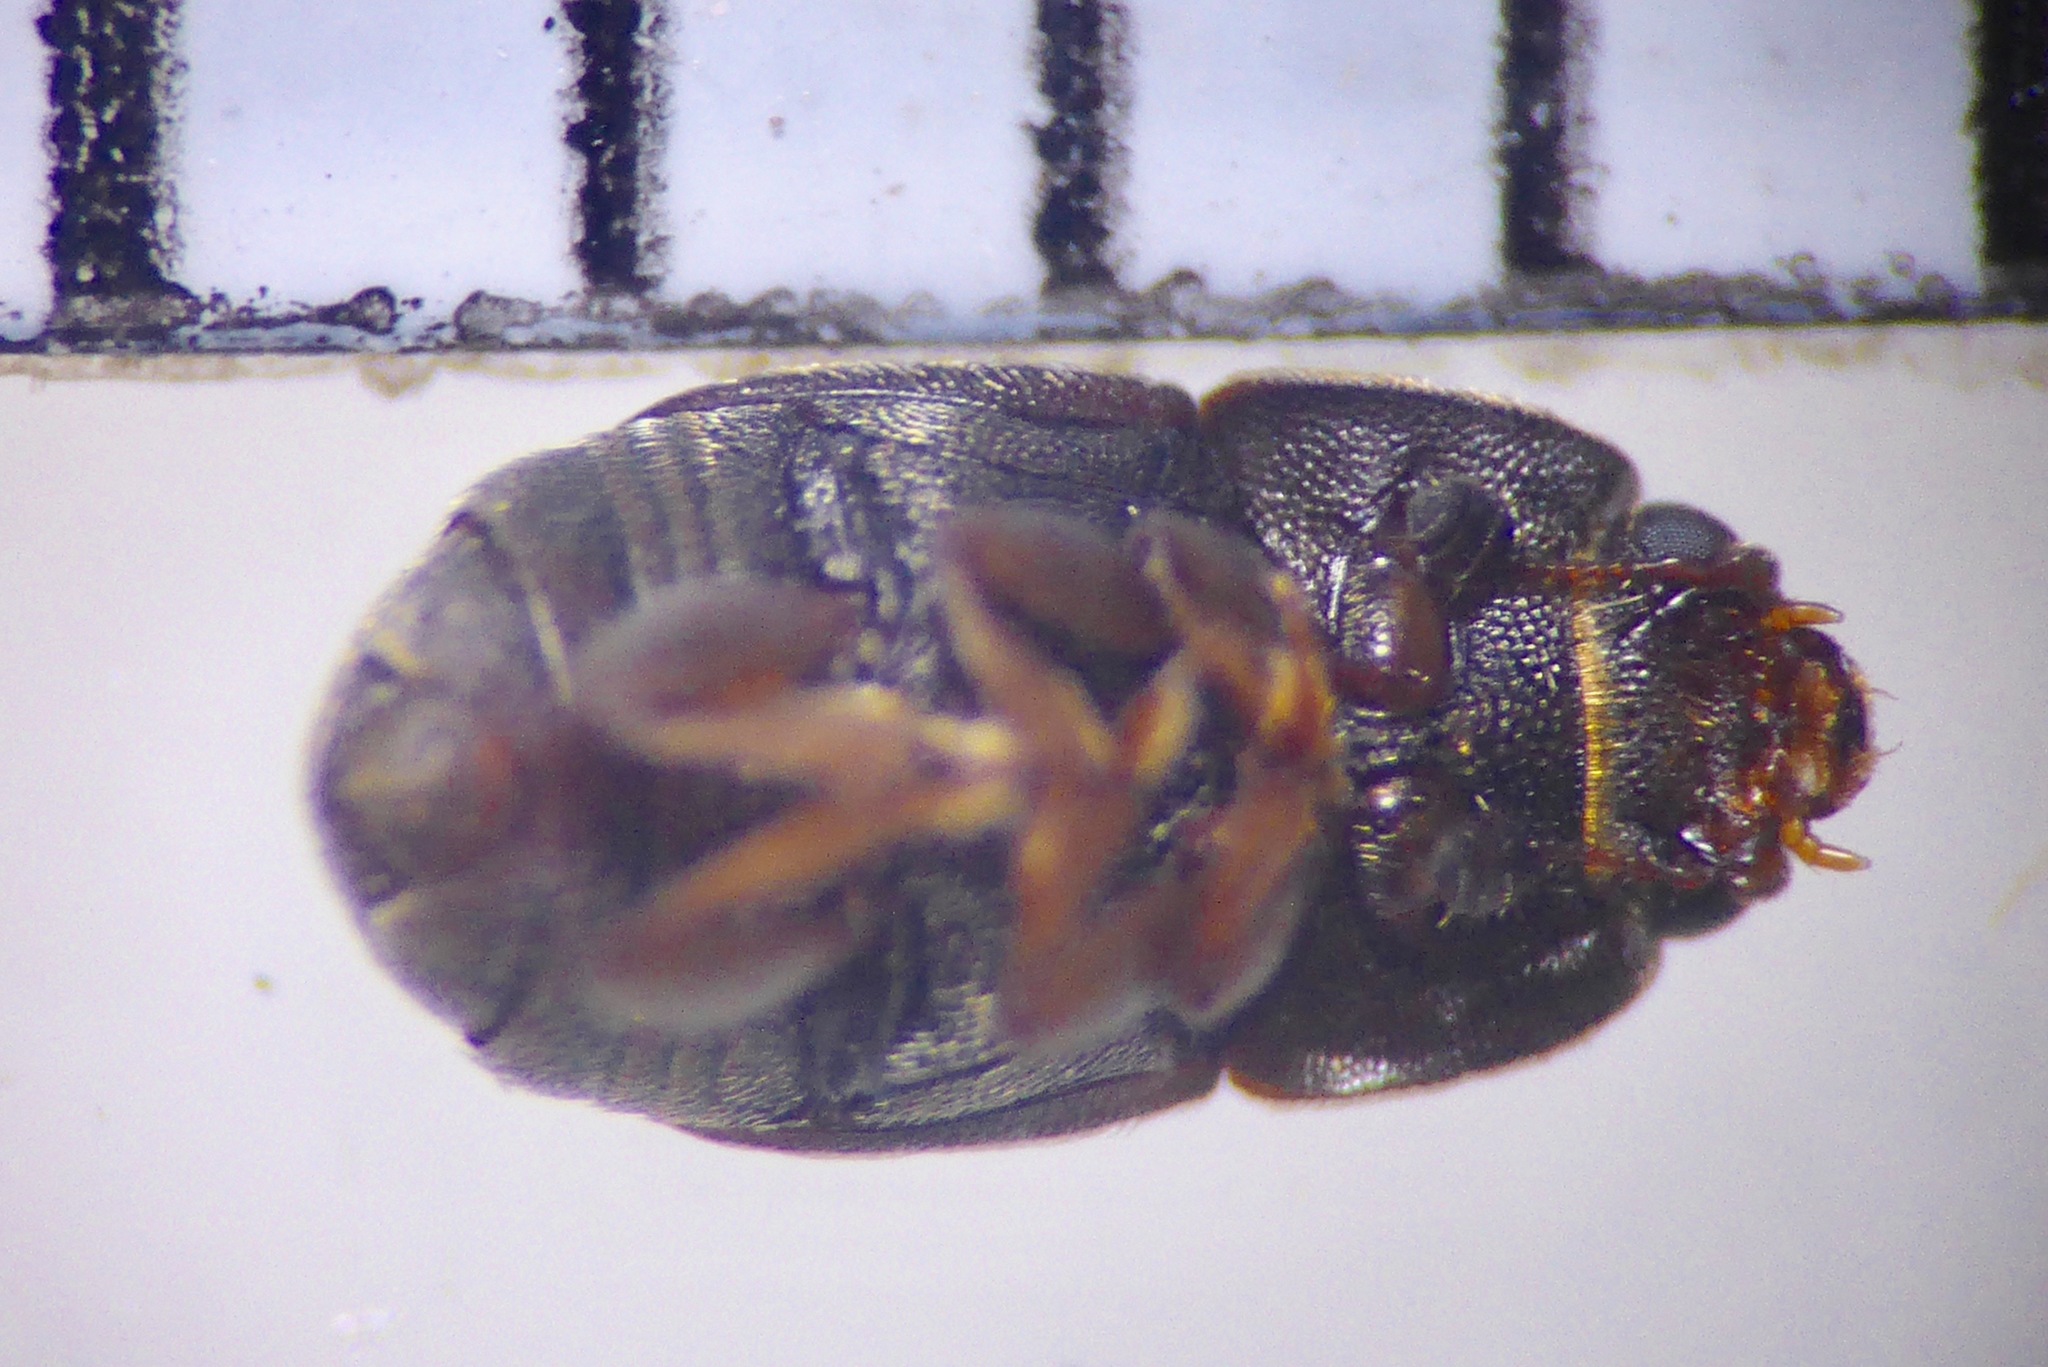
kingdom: Animalia
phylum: Arthropoda
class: Insecta
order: Coleoptera
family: Nitidulidae
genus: Carpophilus
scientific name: Carpophilus hemipterus
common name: Dried fruit beetle
